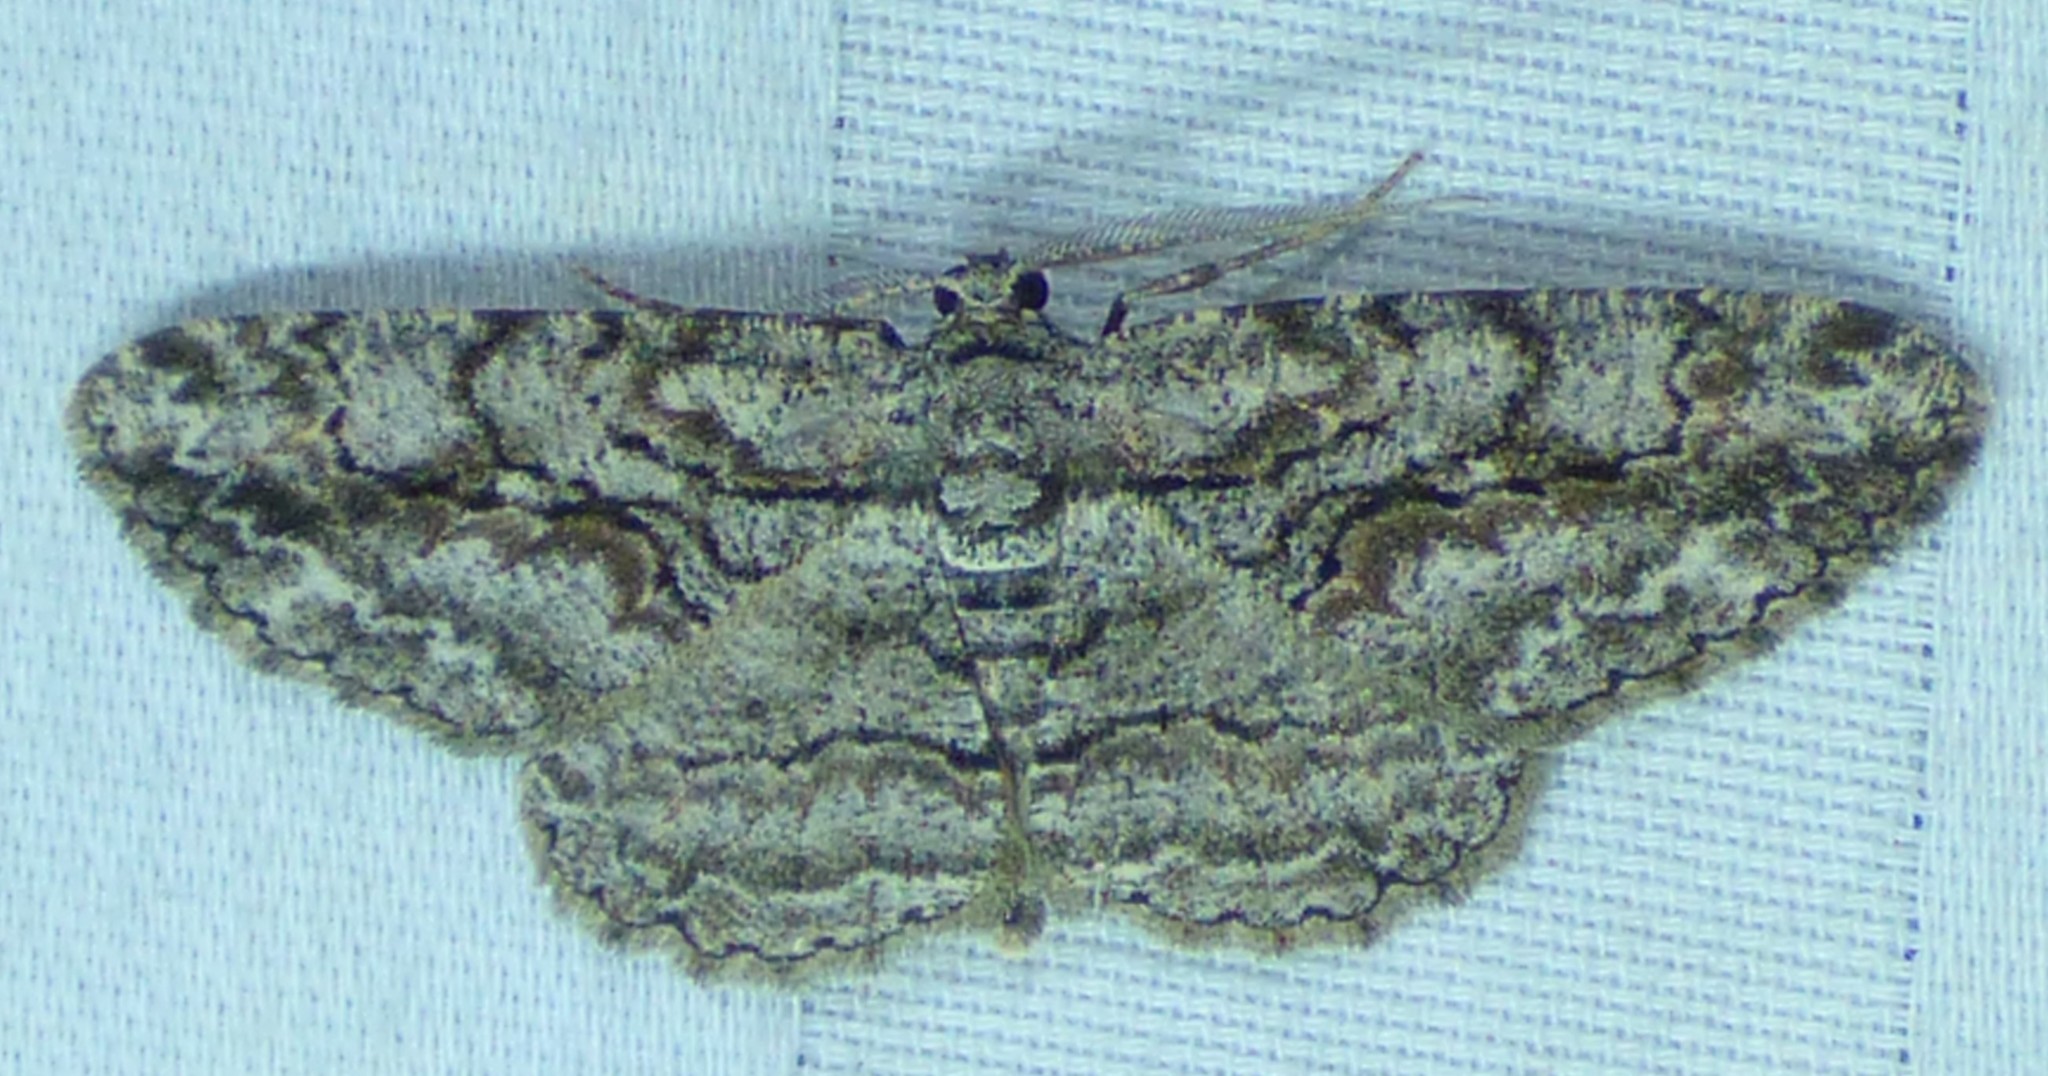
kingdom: Animalia
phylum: Arthropoda
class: Insecta
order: Lepidoptera
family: Geometridae
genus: Anavitrinella
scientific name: Anavitrinella pampinaria
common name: Common gray
